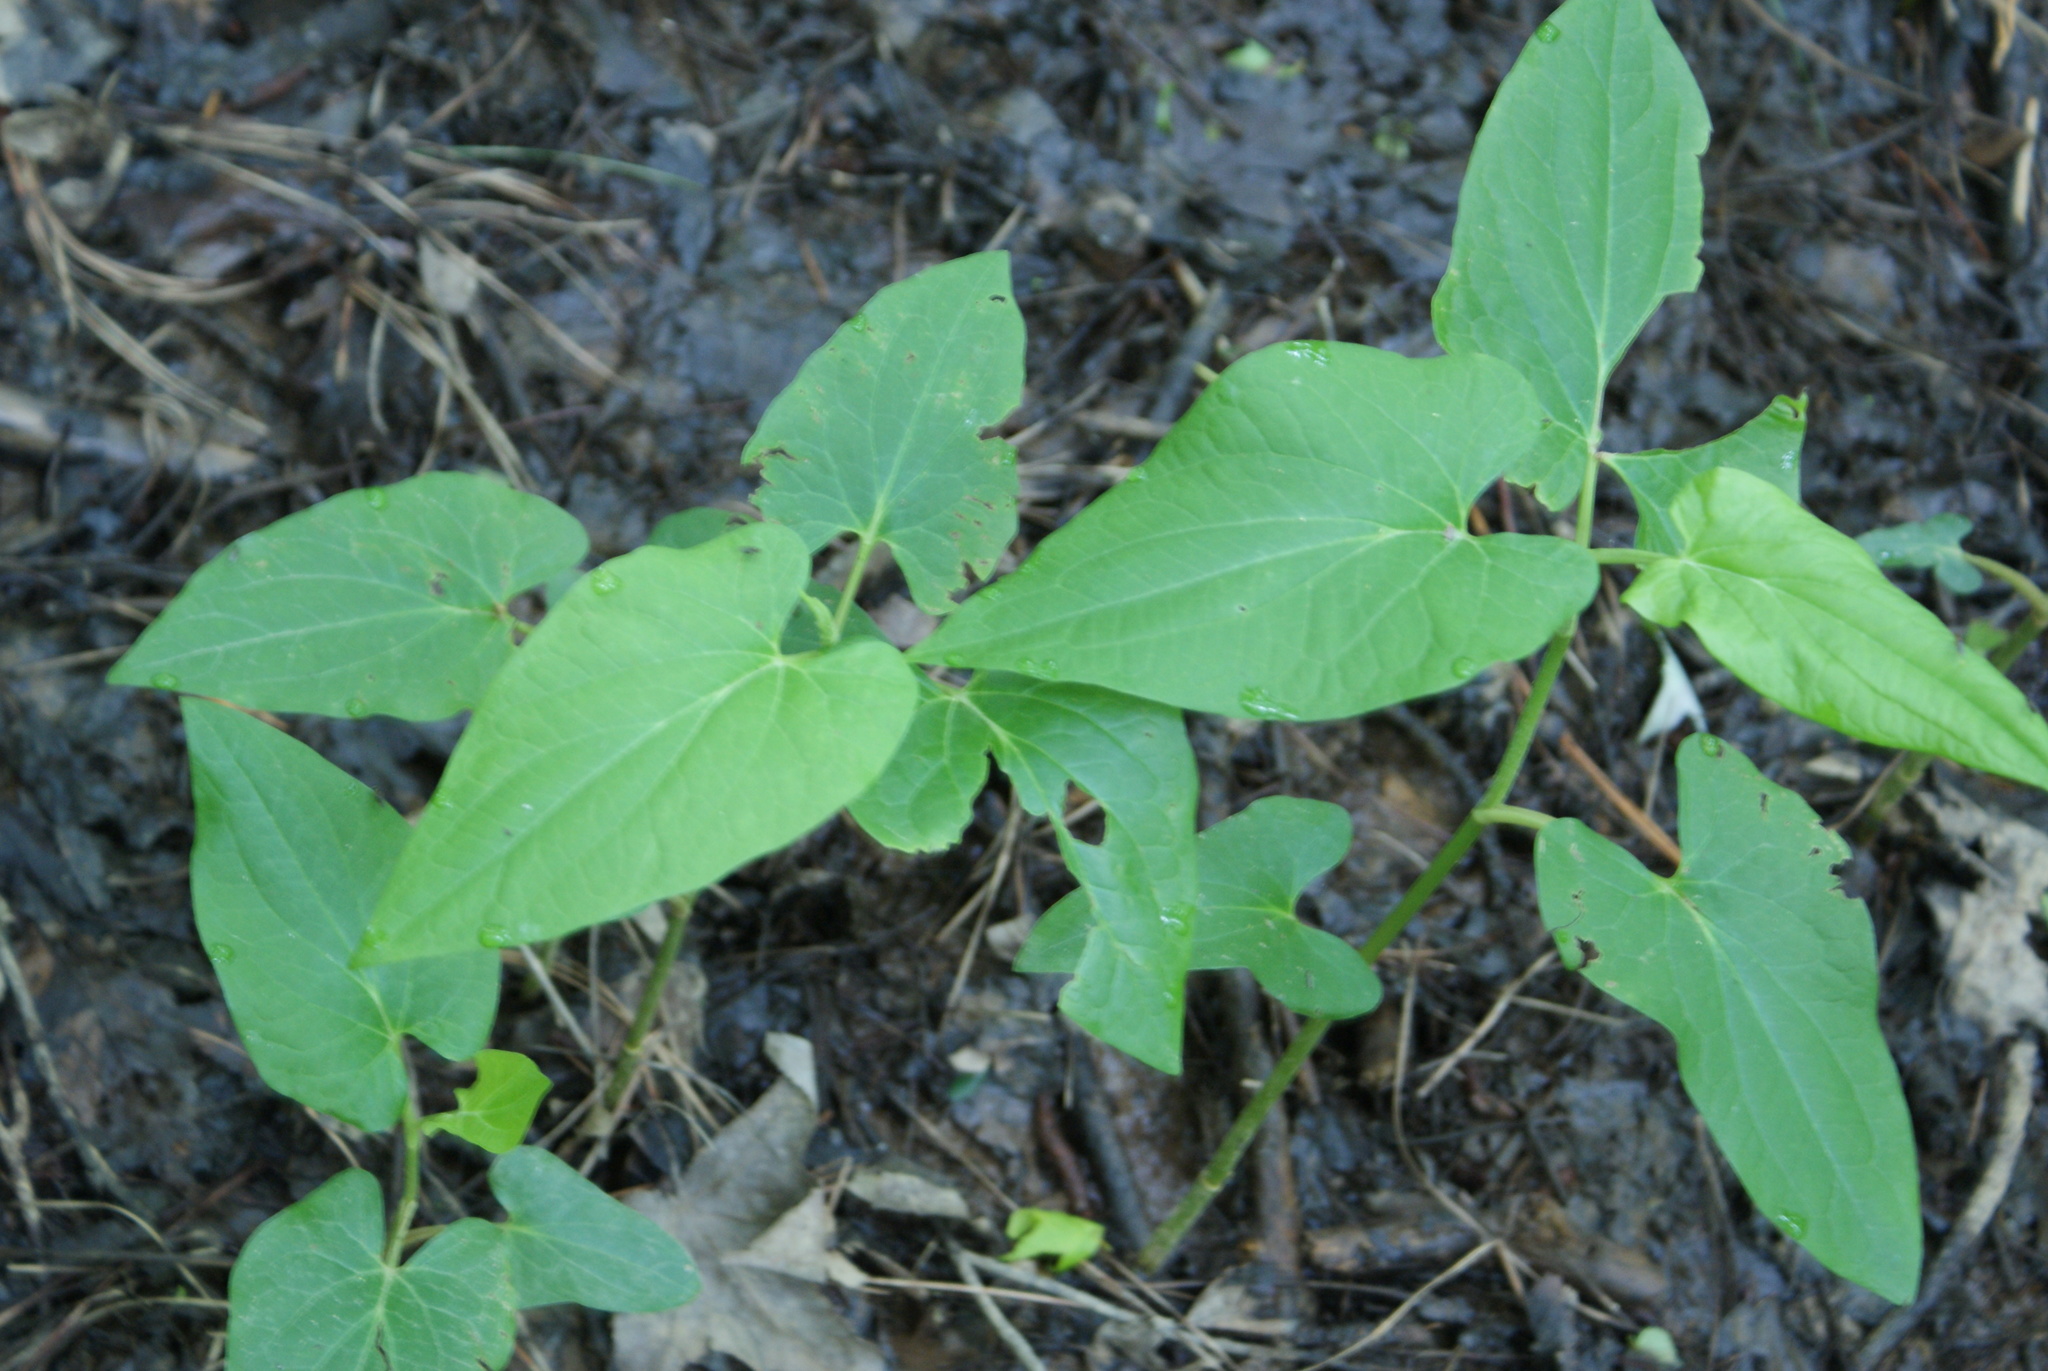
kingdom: Plantae
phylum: Tracheophyta
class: Magnoliopsida
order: Piperales
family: Saururaceae
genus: Saururus
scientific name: Saururus cernuus
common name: Lizard's-tail
